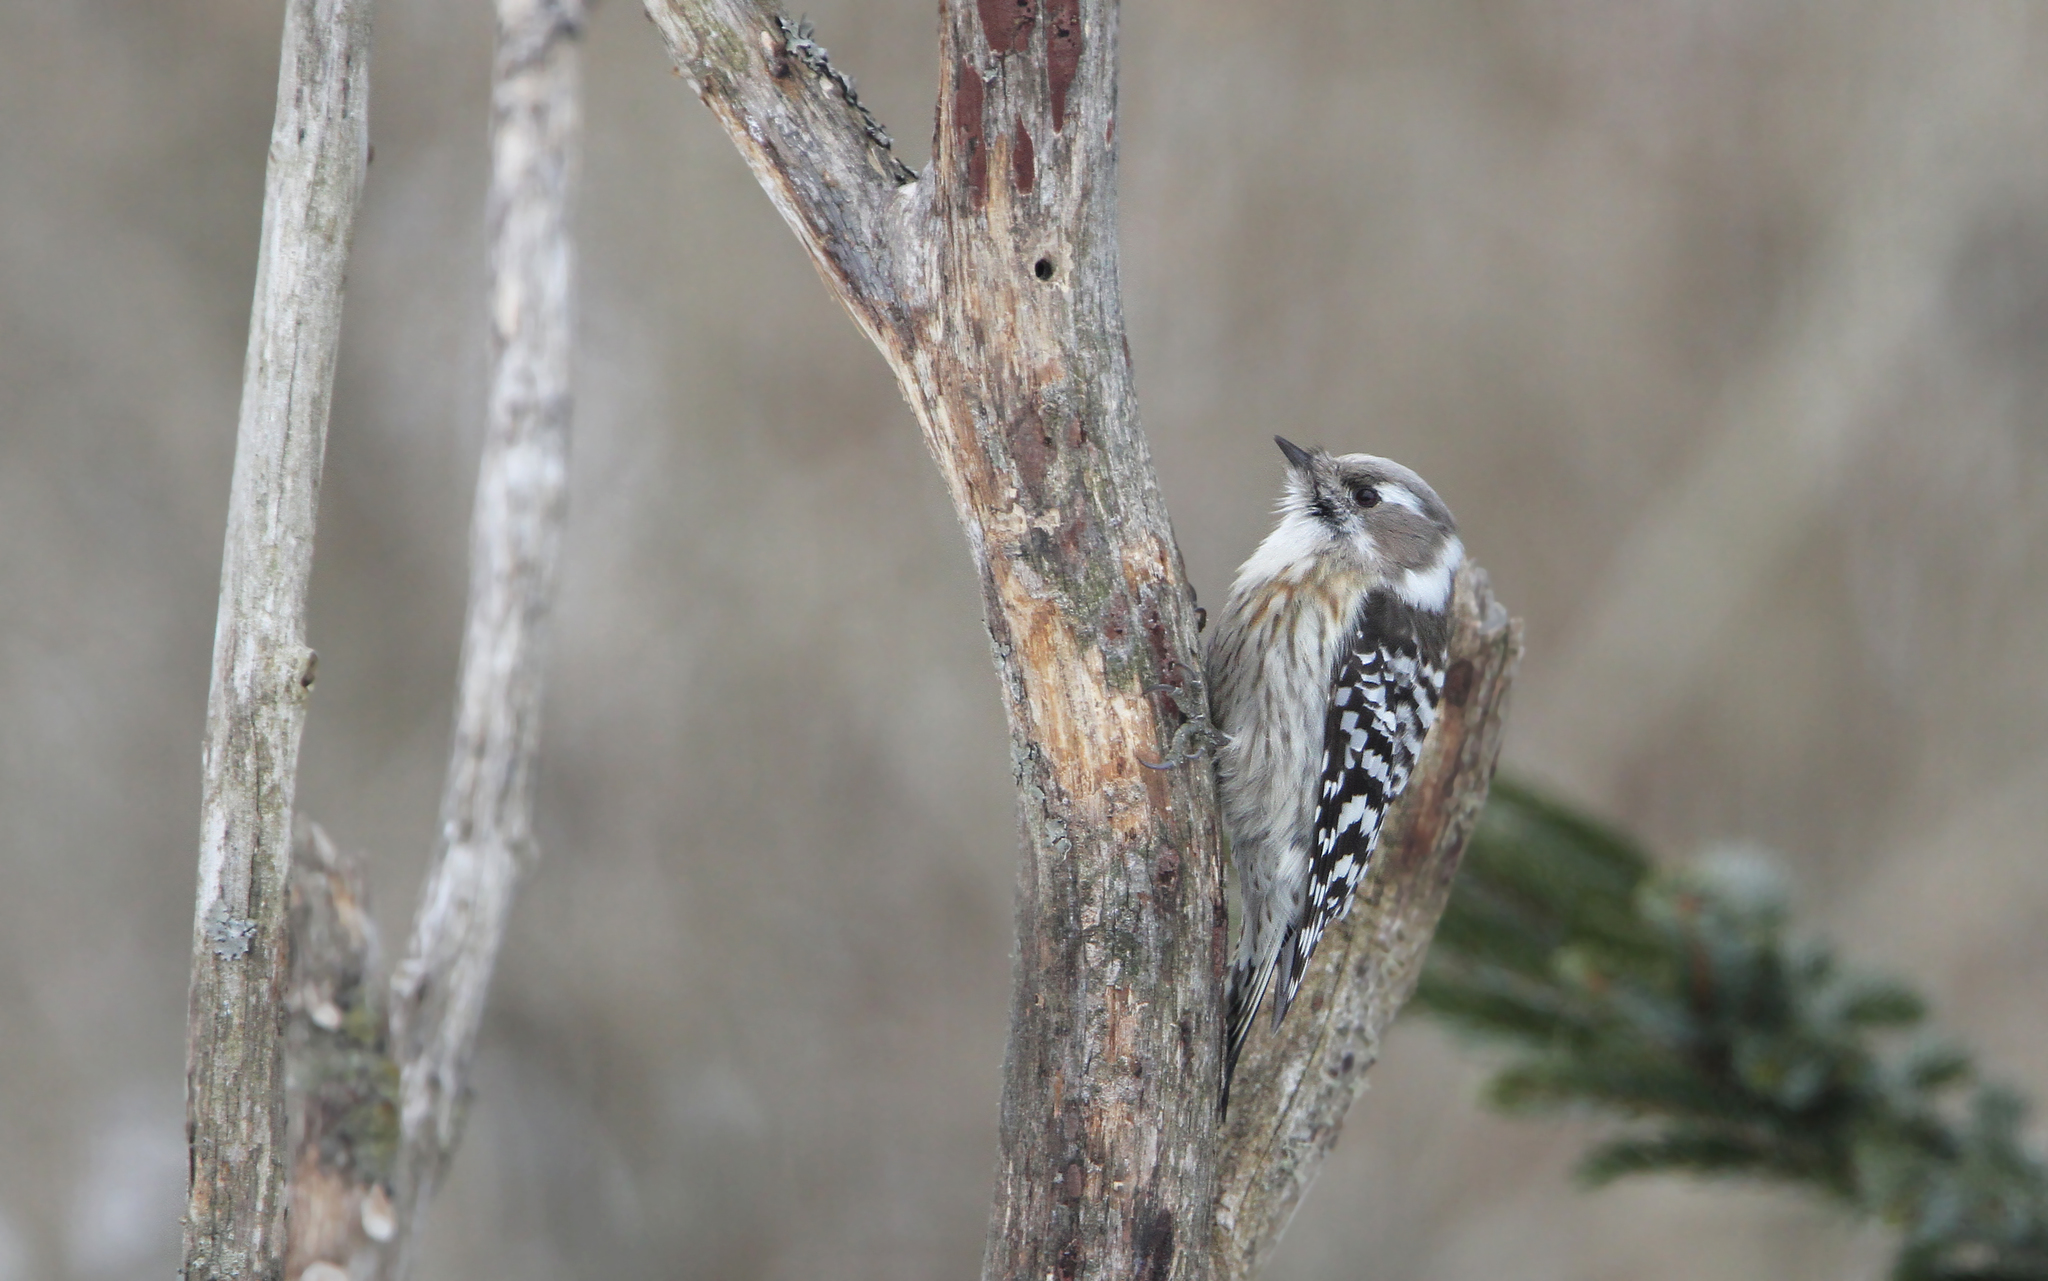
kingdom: Animalia
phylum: Chordata
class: Aves
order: Piciformes
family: Picidae
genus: Yungipicus
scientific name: Yungipicus kizuki
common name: Japanese pygmy woodpecker
